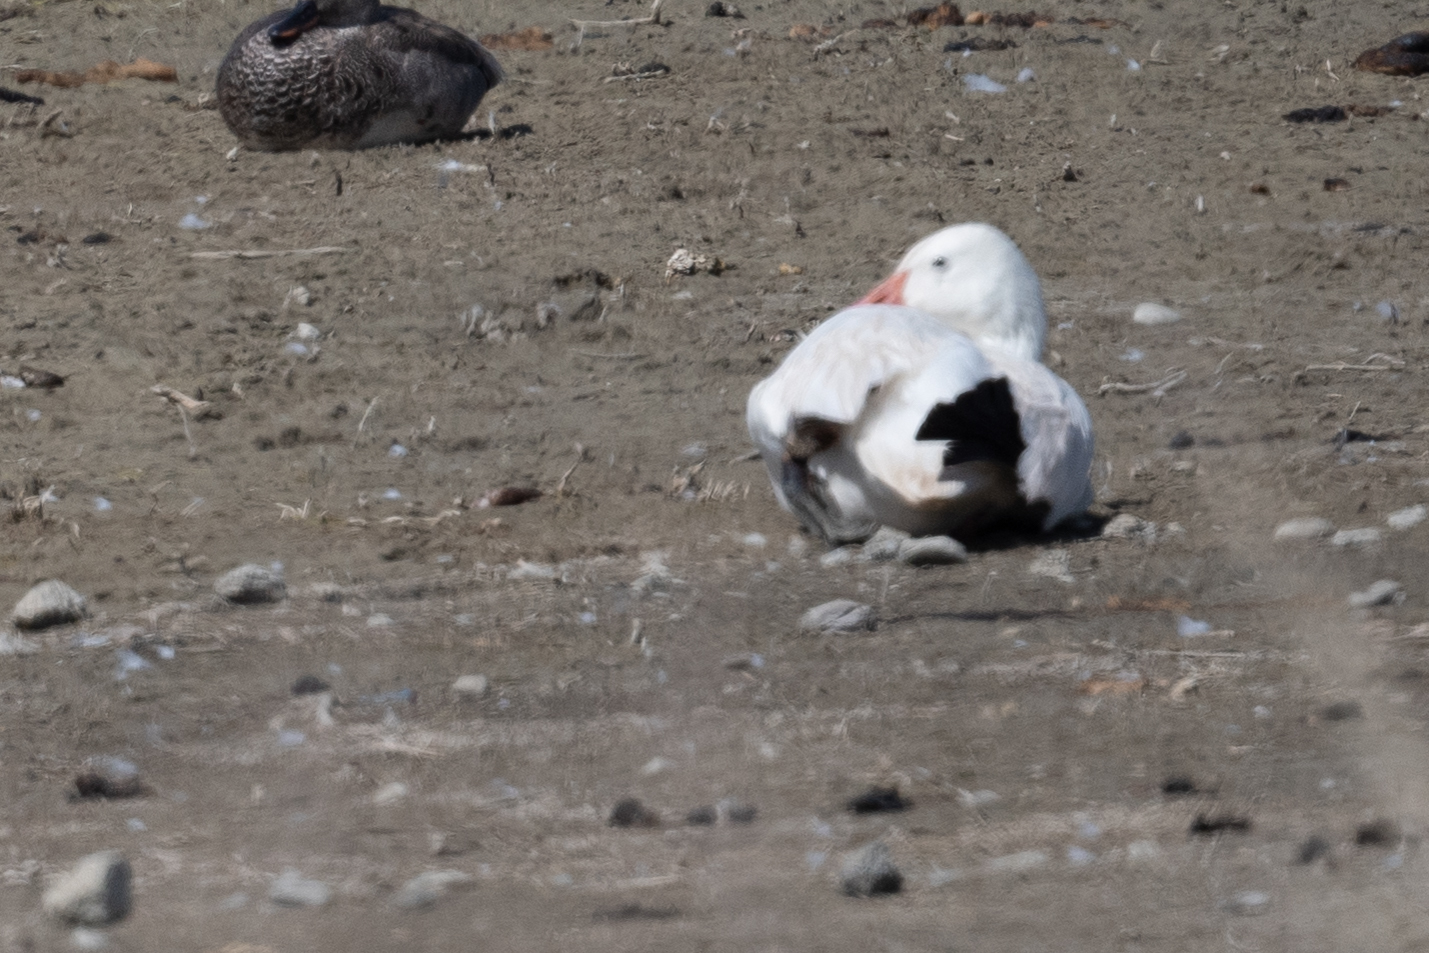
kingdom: Animalia
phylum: Chordata
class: Aves
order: Anseriformes
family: Anatidae
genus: Anser
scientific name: Anser caerulescens
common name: Snow goose
